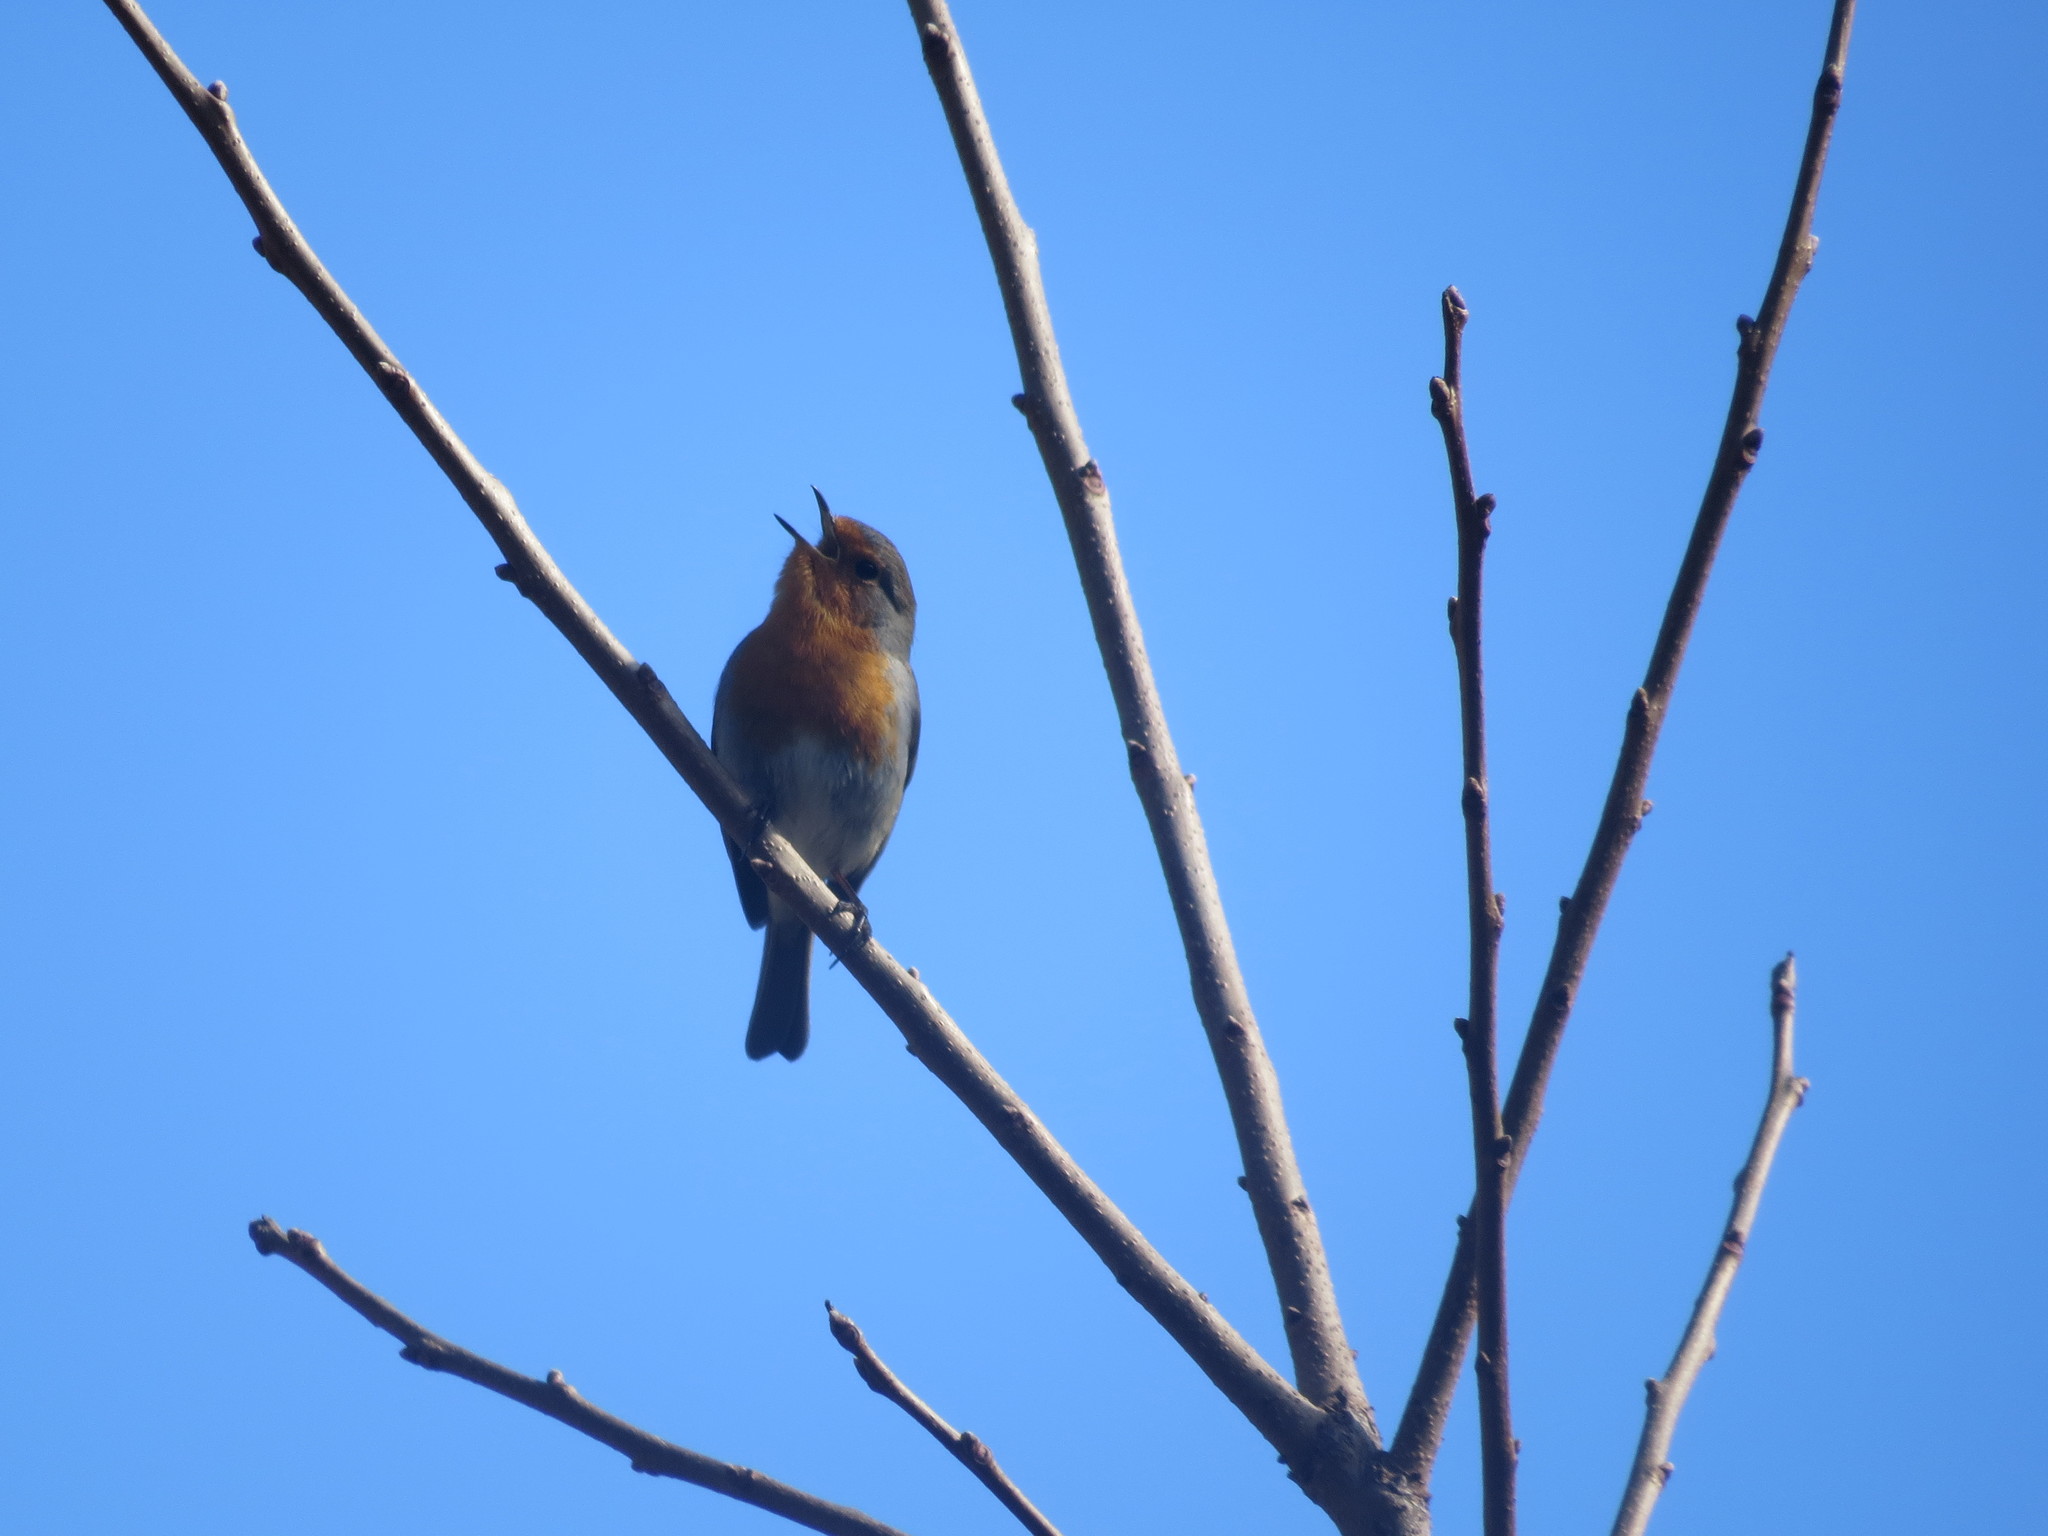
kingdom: Animalia
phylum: Chordata
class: Aves
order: Passeriformes
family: Muscicapidae
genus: Erithacus
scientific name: Erithacus rubecula
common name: European robin
